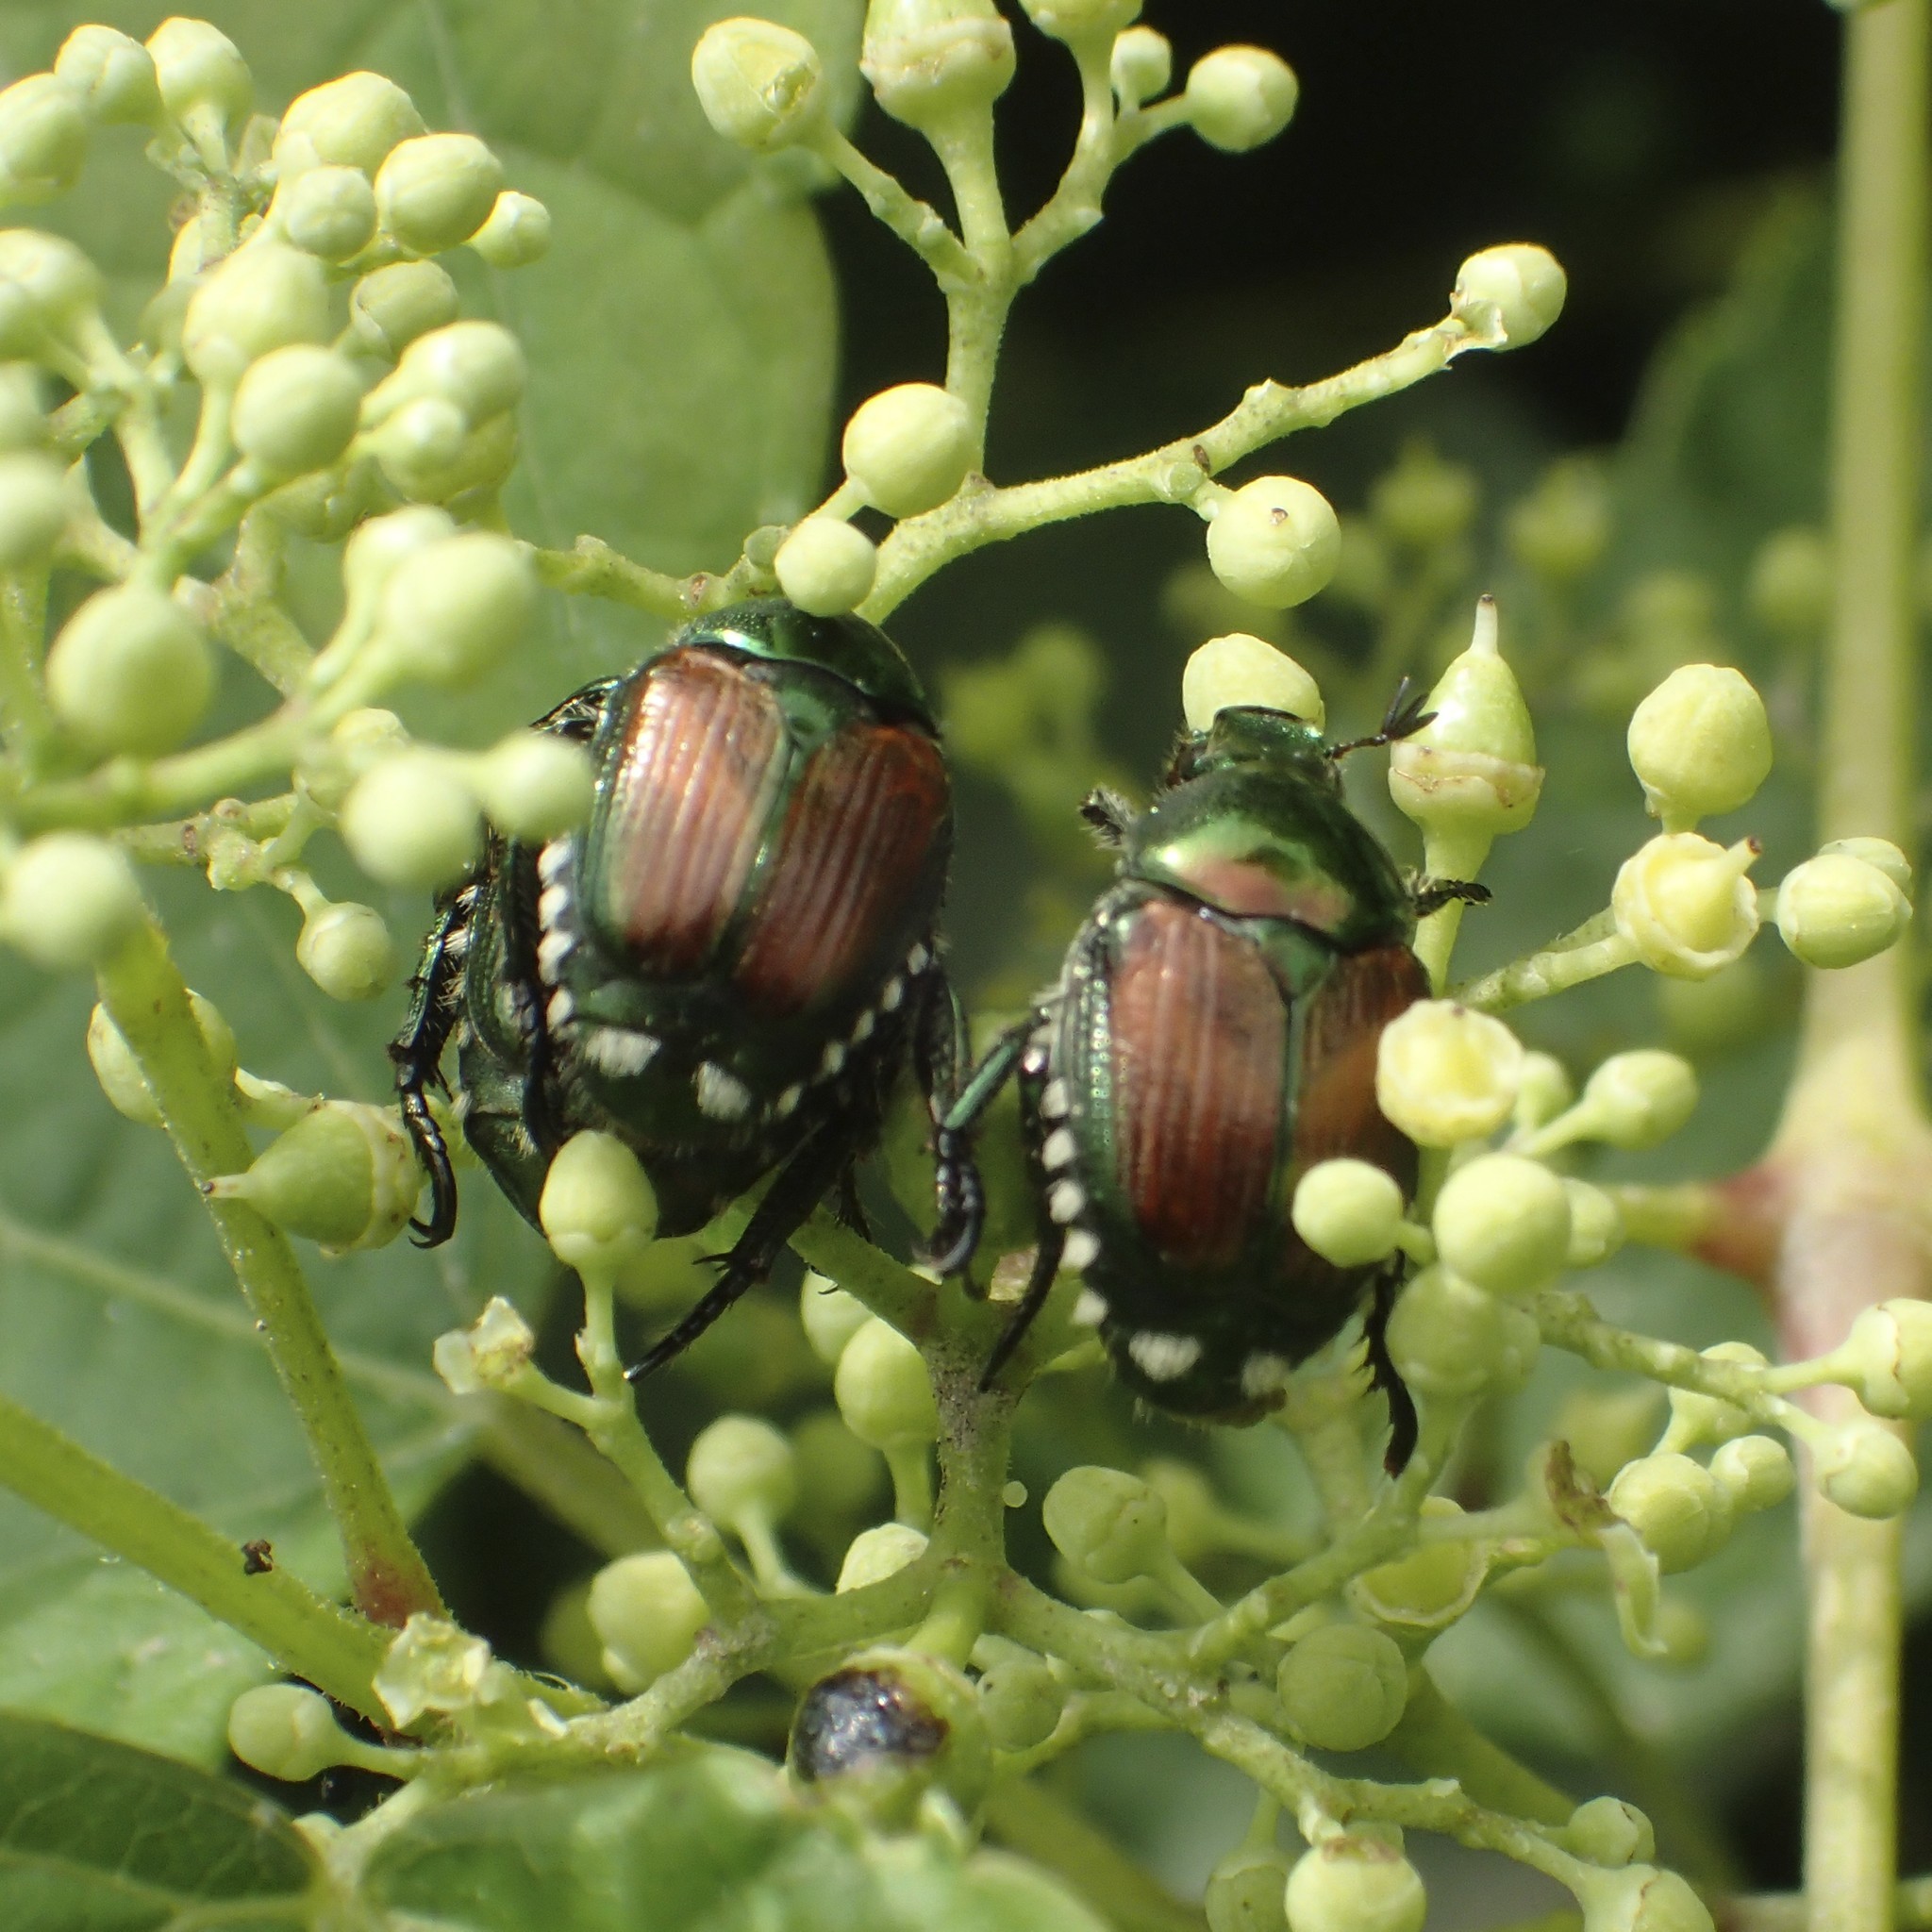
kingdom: Animalia
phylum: Arthropoda
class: Insecta
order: Coleoptera
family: Scarabaeidae
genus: Popillia
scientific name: Popillia japonica
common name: Japanese beetle
